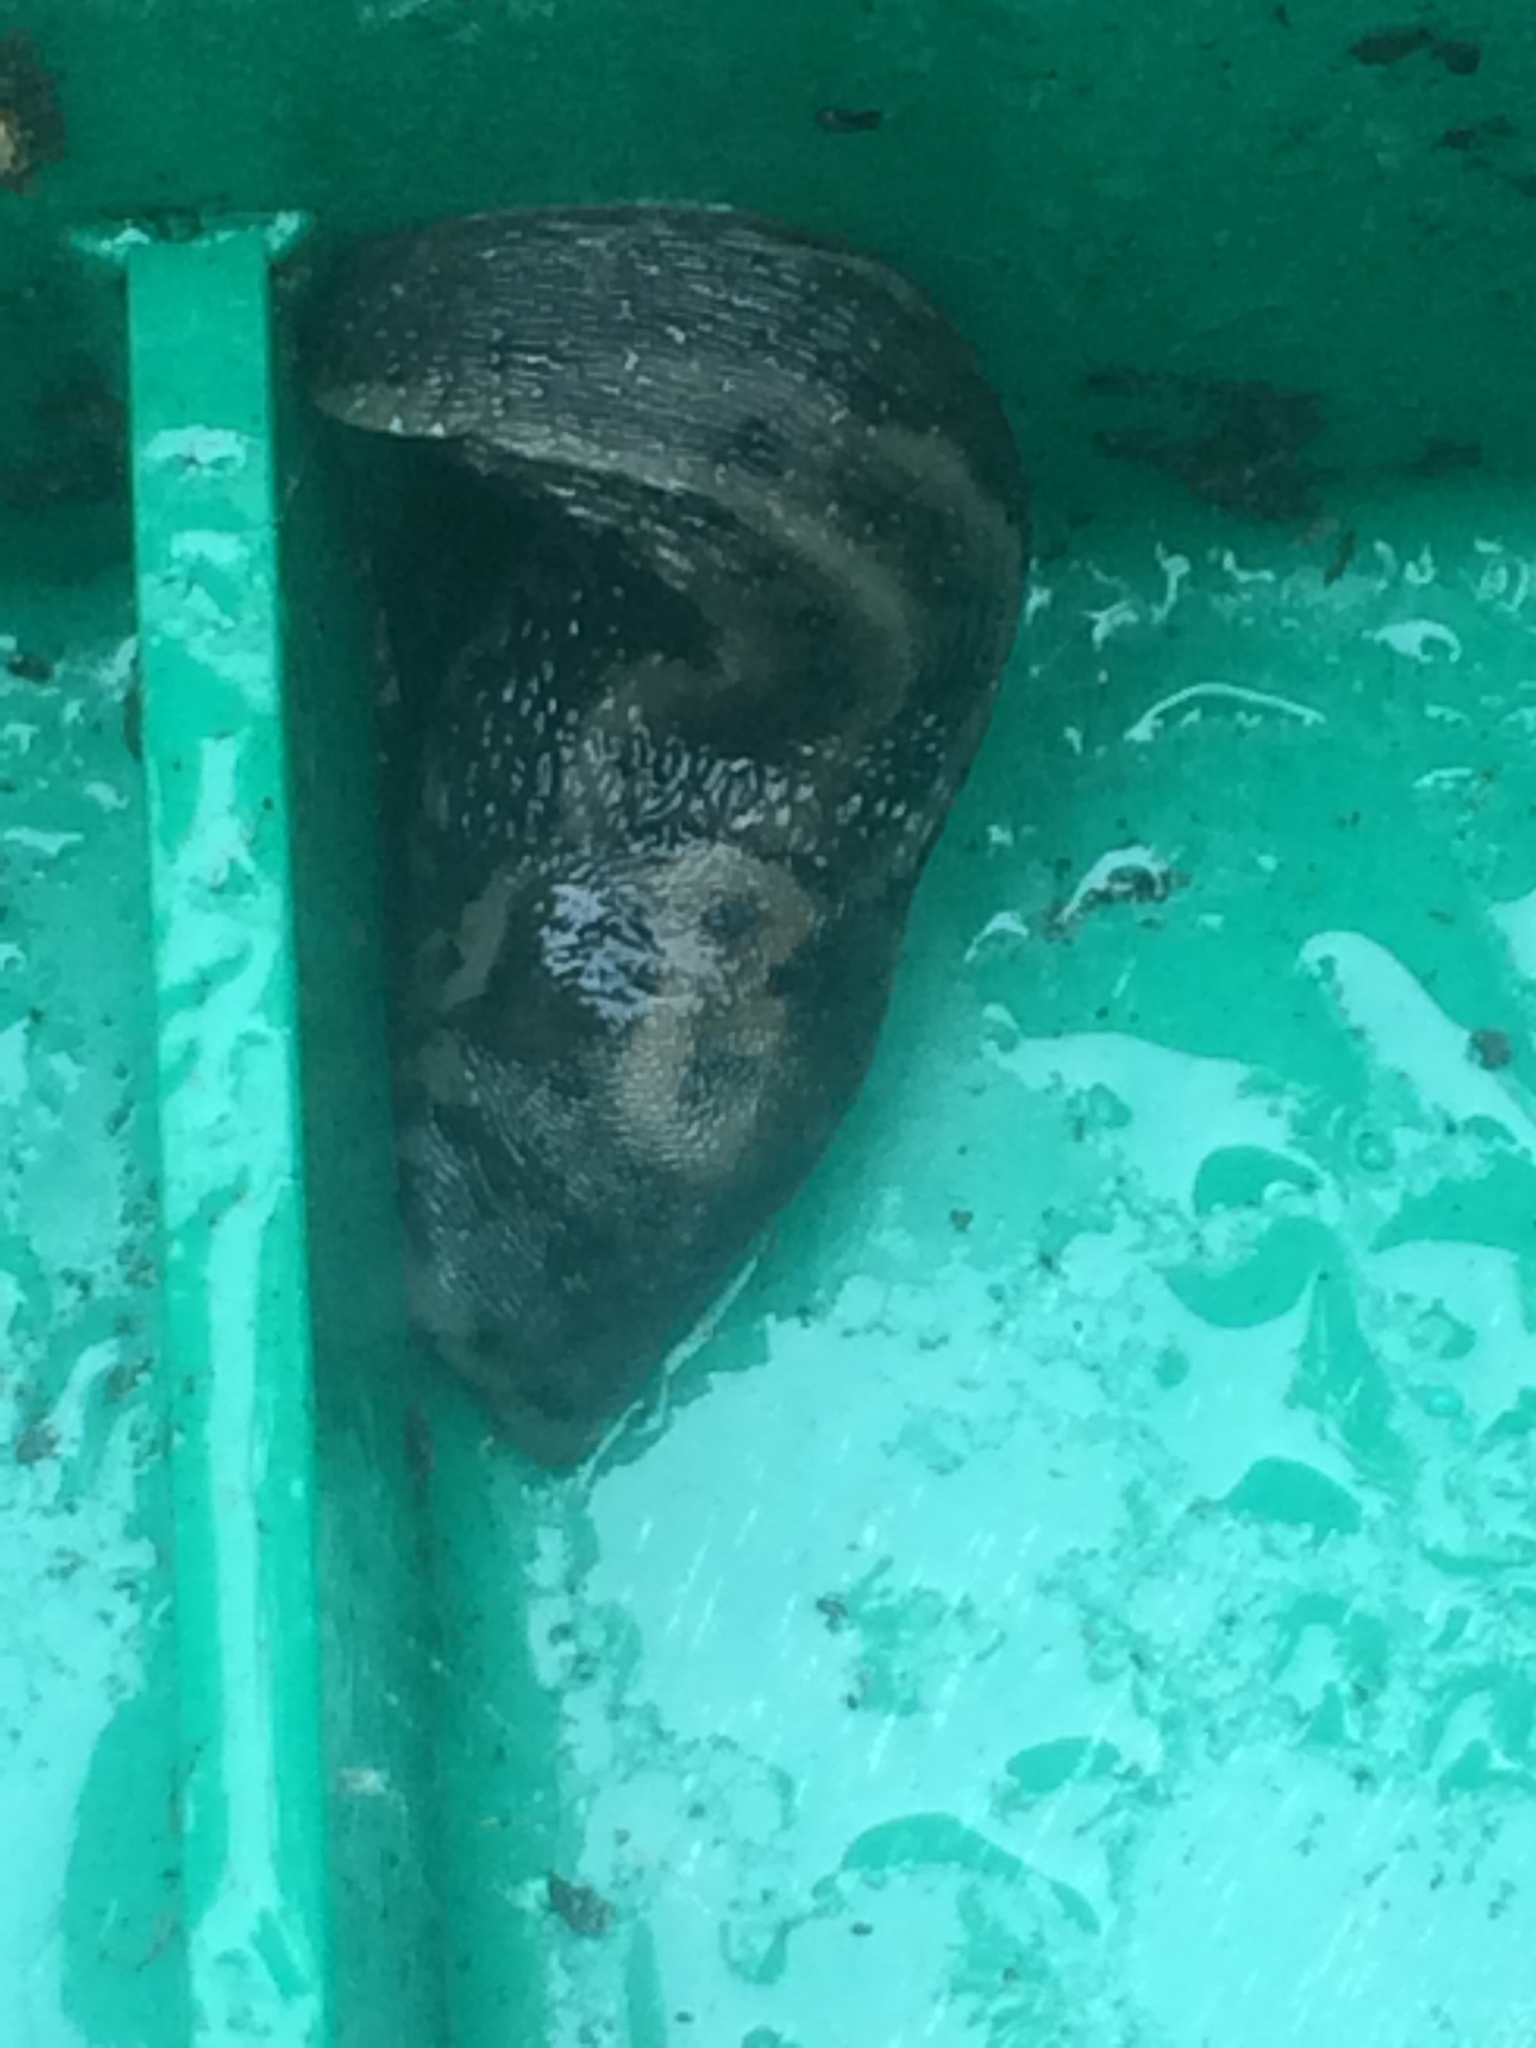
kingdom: Animalia
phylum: Mollusca
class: Gastropoda
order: Stylommatophora
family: Limacidae
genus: Limax
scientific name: Limax maximus
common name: Great grey slug
